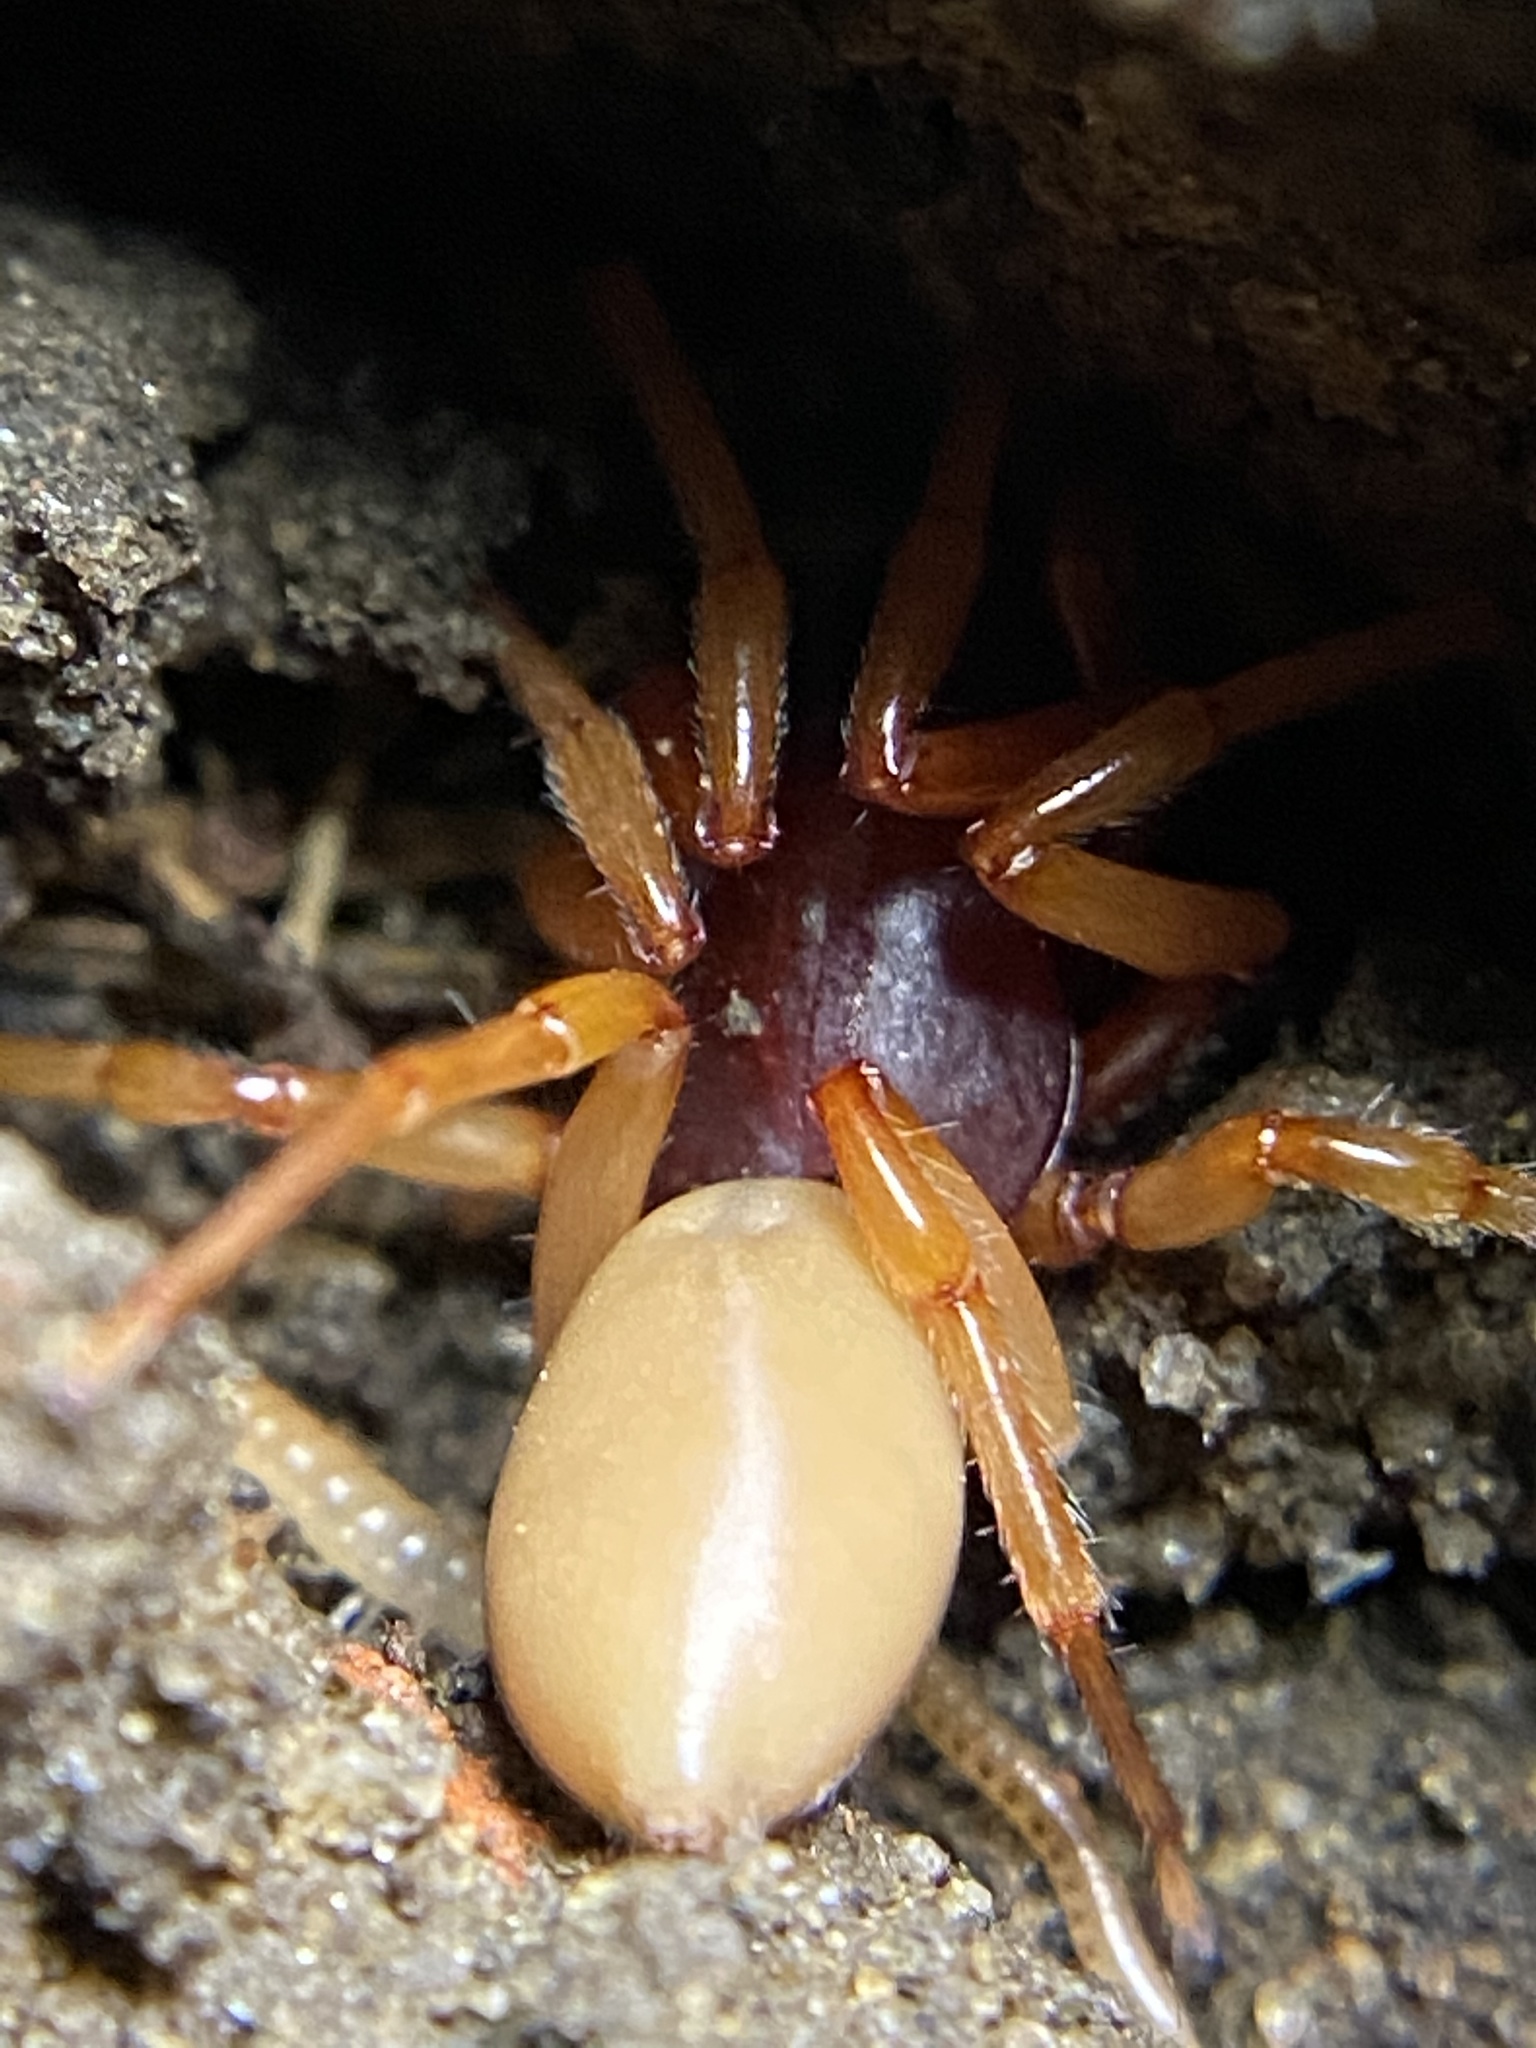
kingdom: Animalia
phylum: Arthropoda
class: Arachnida
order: Araneae
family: Dysderidae
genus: Dysdera
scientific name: Dysdera crocata
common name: Woodlouse spider
